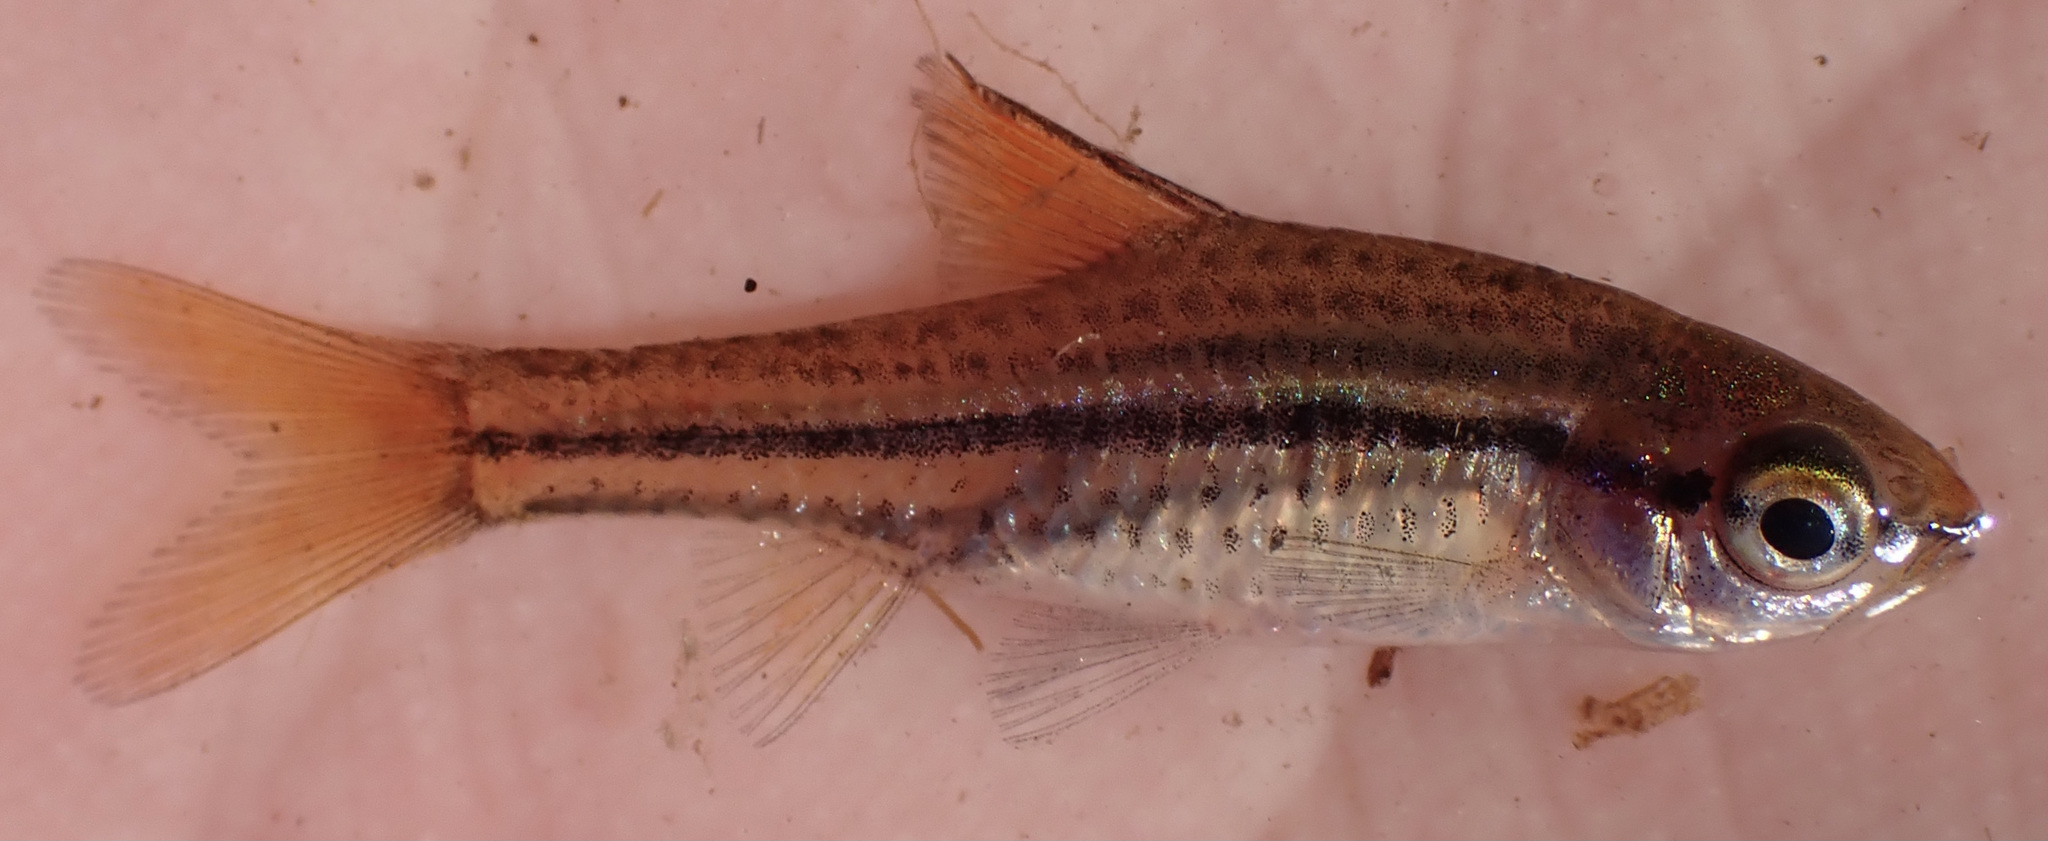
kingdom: Animalia
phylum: Chordata
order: Cypriniformes
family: Cyprinidae
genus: Enteromius
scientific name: Enteromius multilineatus
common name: Copperstripe barb
